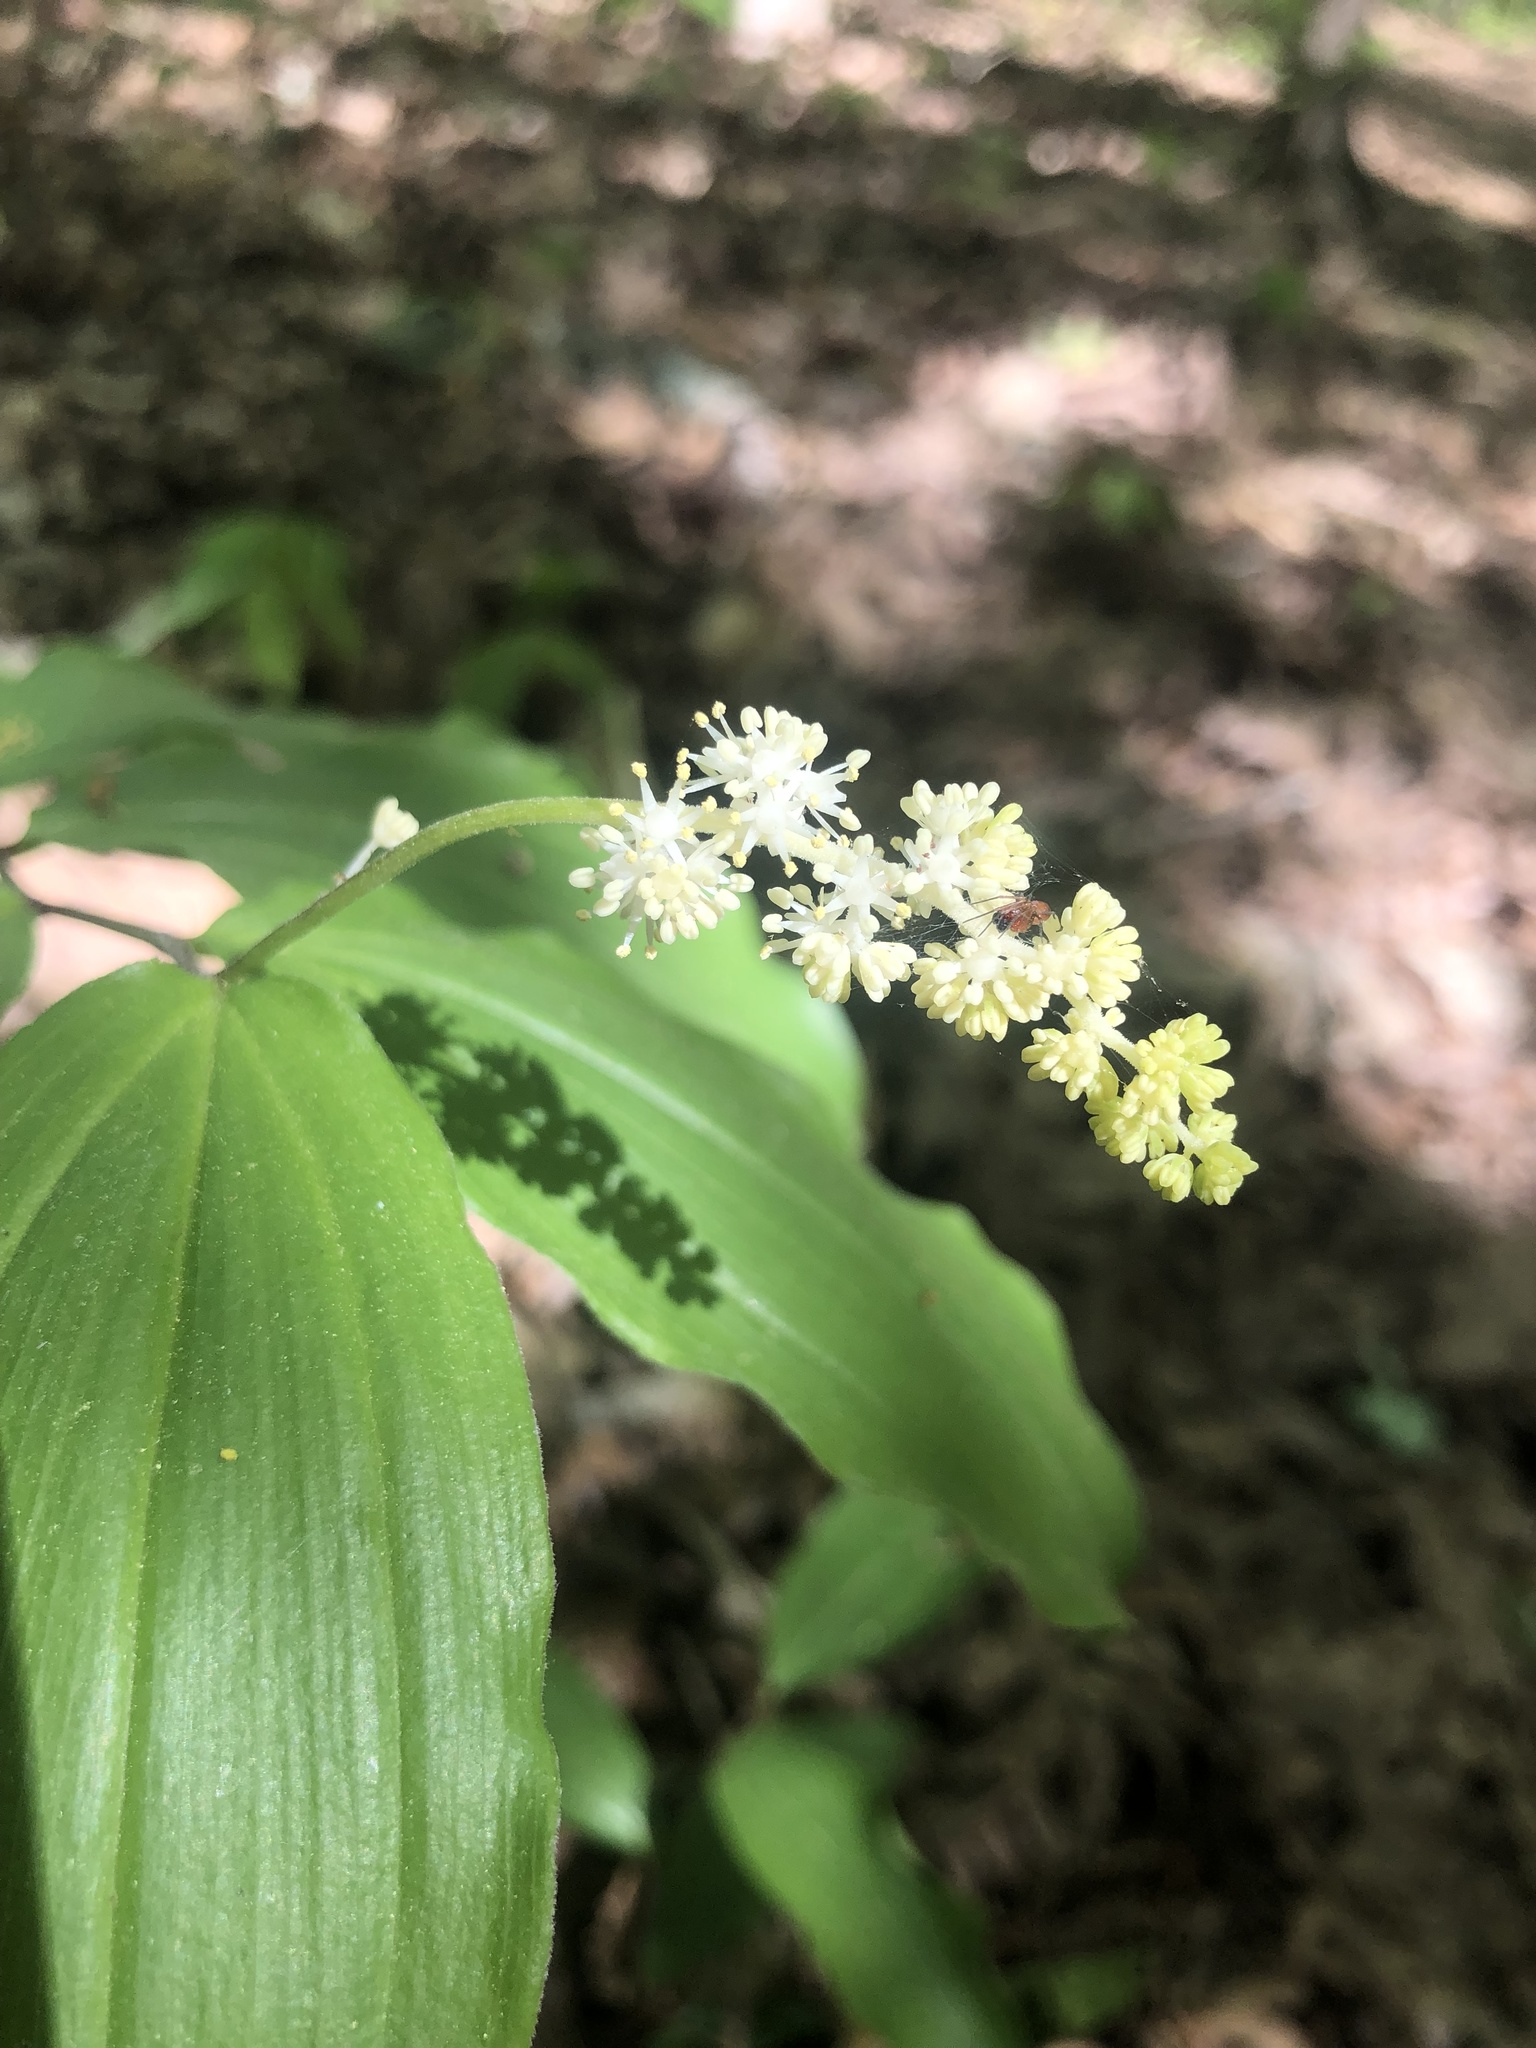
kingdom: Plantae
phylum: Tracheophyta
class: Liliopsida
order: Asparagales
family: Asparagaceae
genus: Maianthemum
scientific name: Maianthemum racemosum
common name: False spikenard
